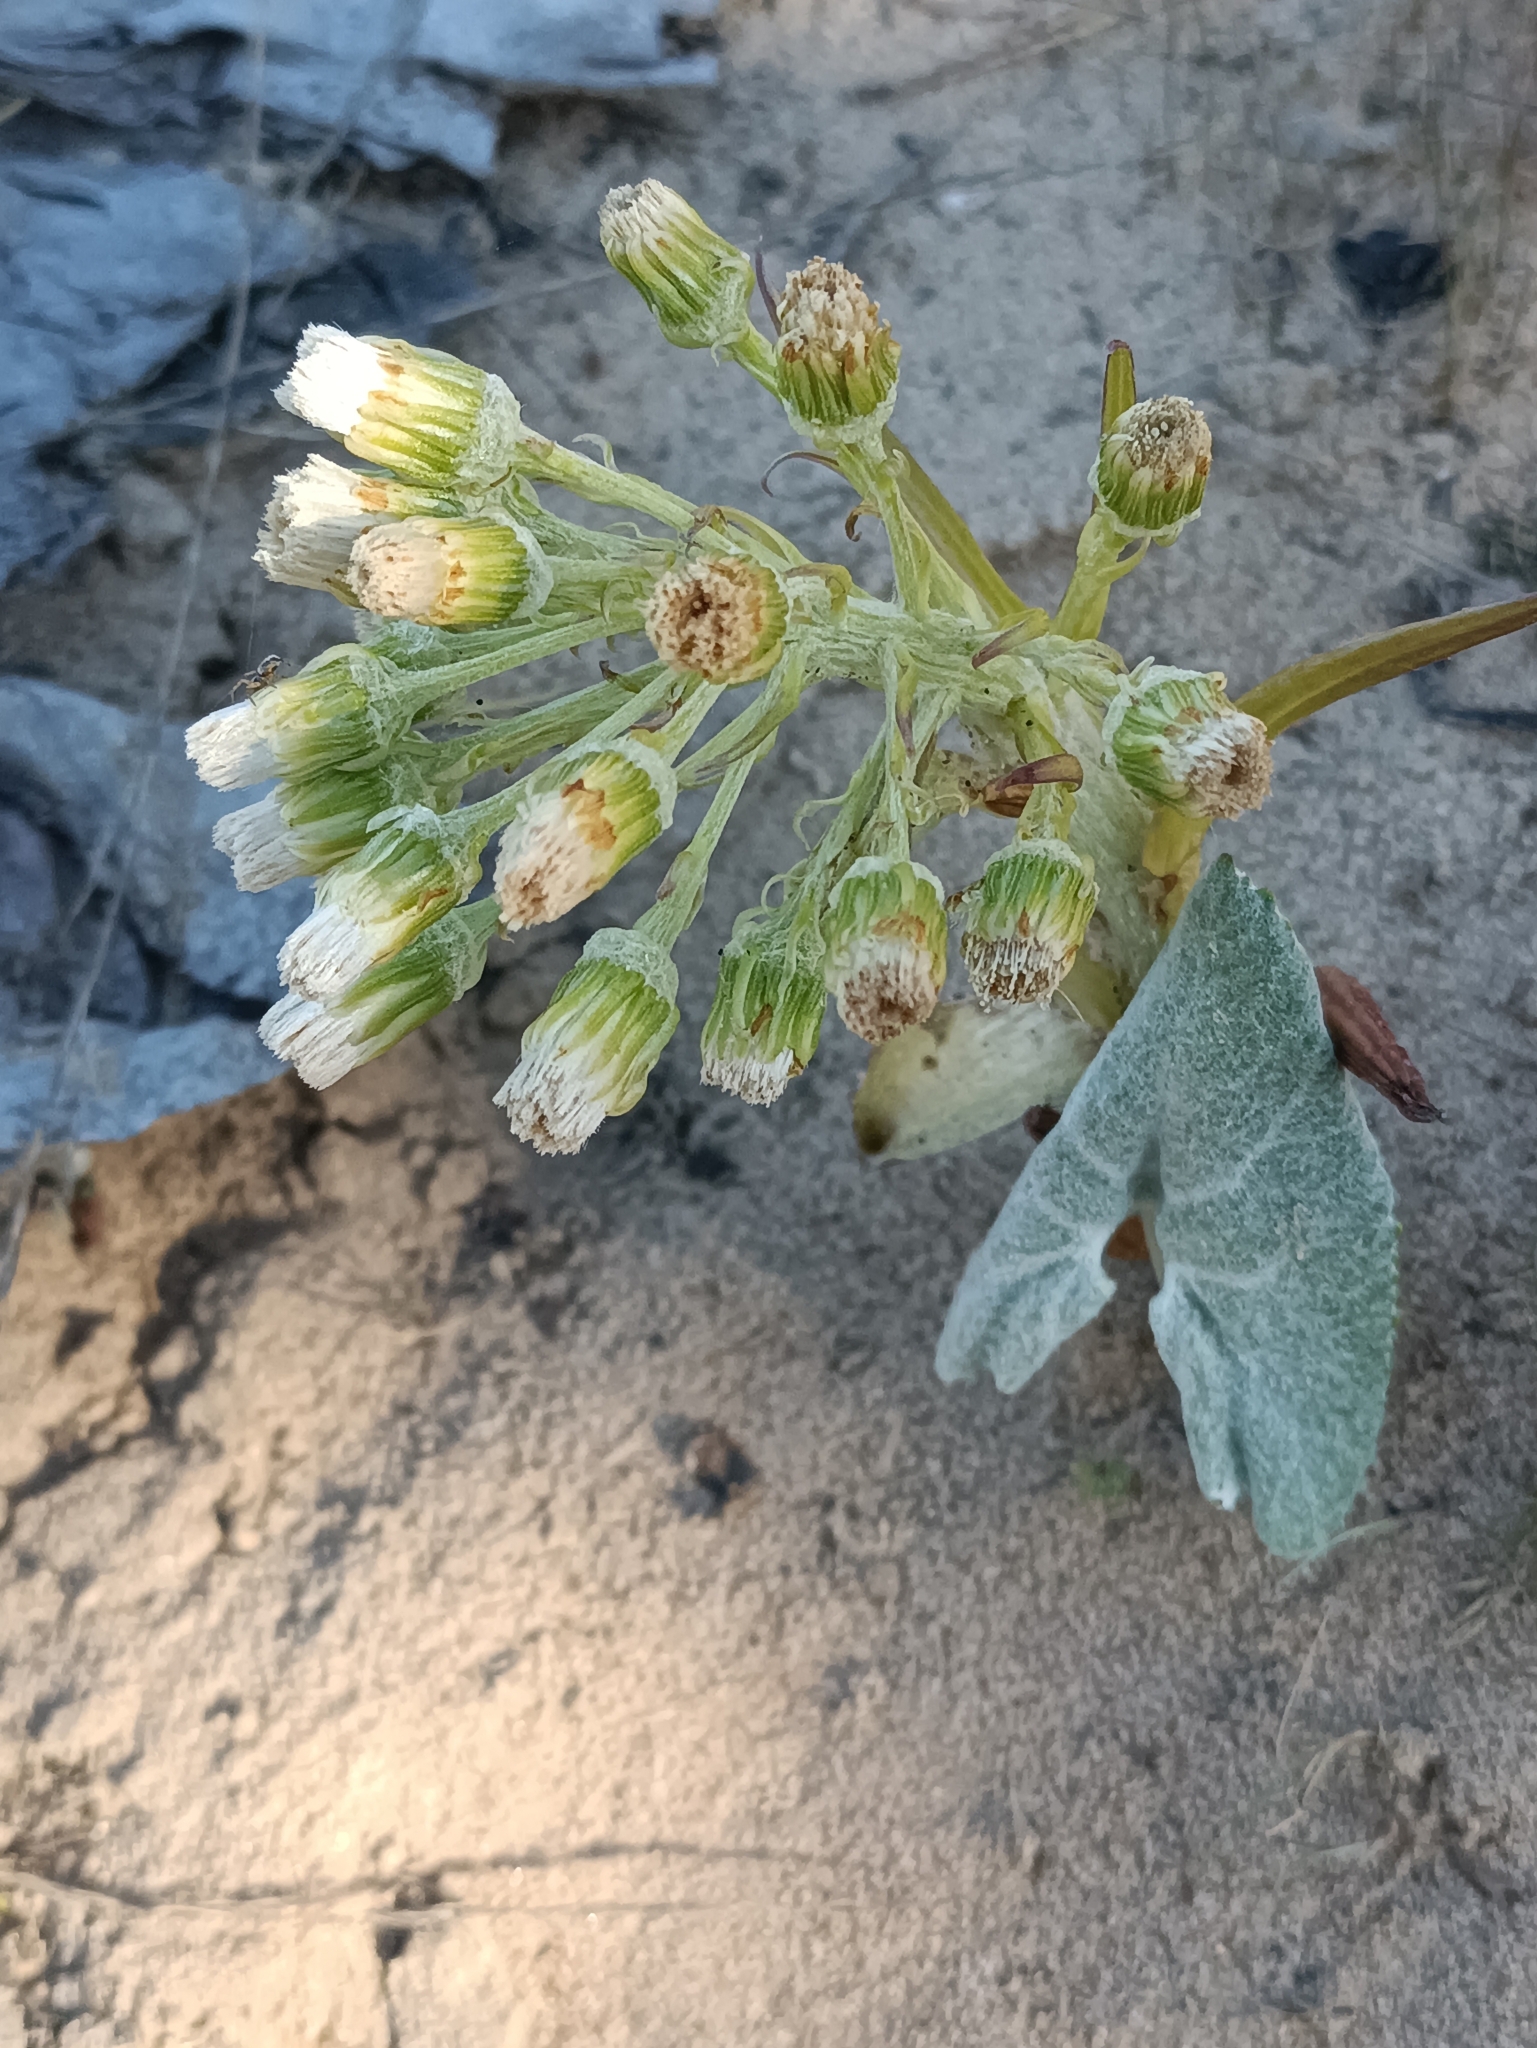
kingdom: Plantae
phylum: Tracheophyta
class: Magnoliopsida
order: Asterales
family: Asteraceae
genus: Petasites
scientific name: Petasites spurius
